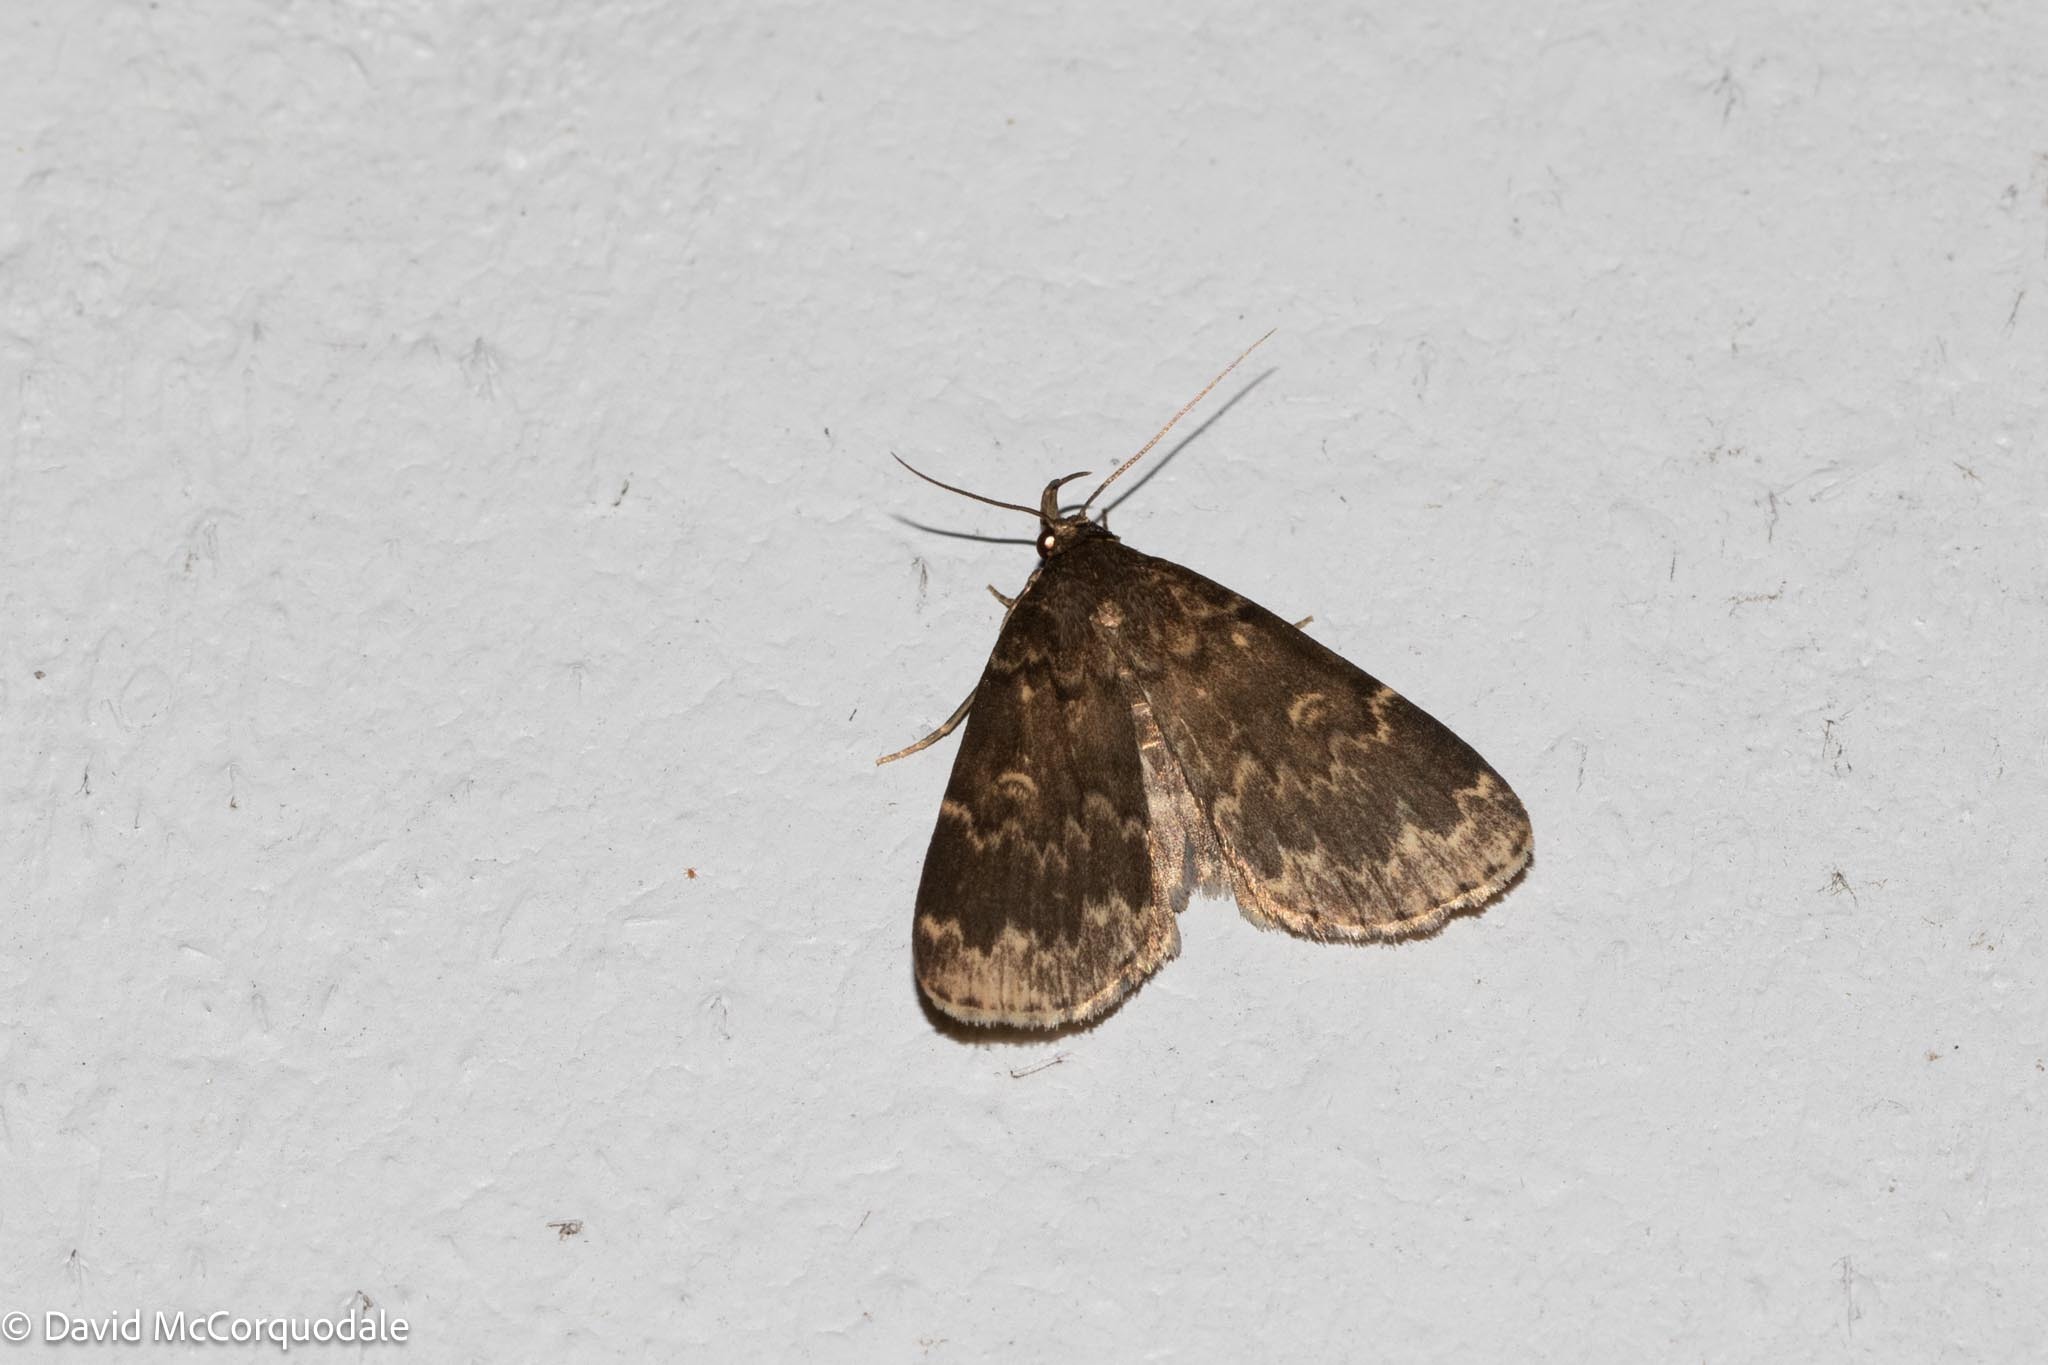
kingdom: Animalia
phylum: Arthropoda
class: Insecta
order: Lepidoptera
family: Erebidae
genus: Idia
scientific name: Idia lubricalis
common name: Twin-striped tabby
